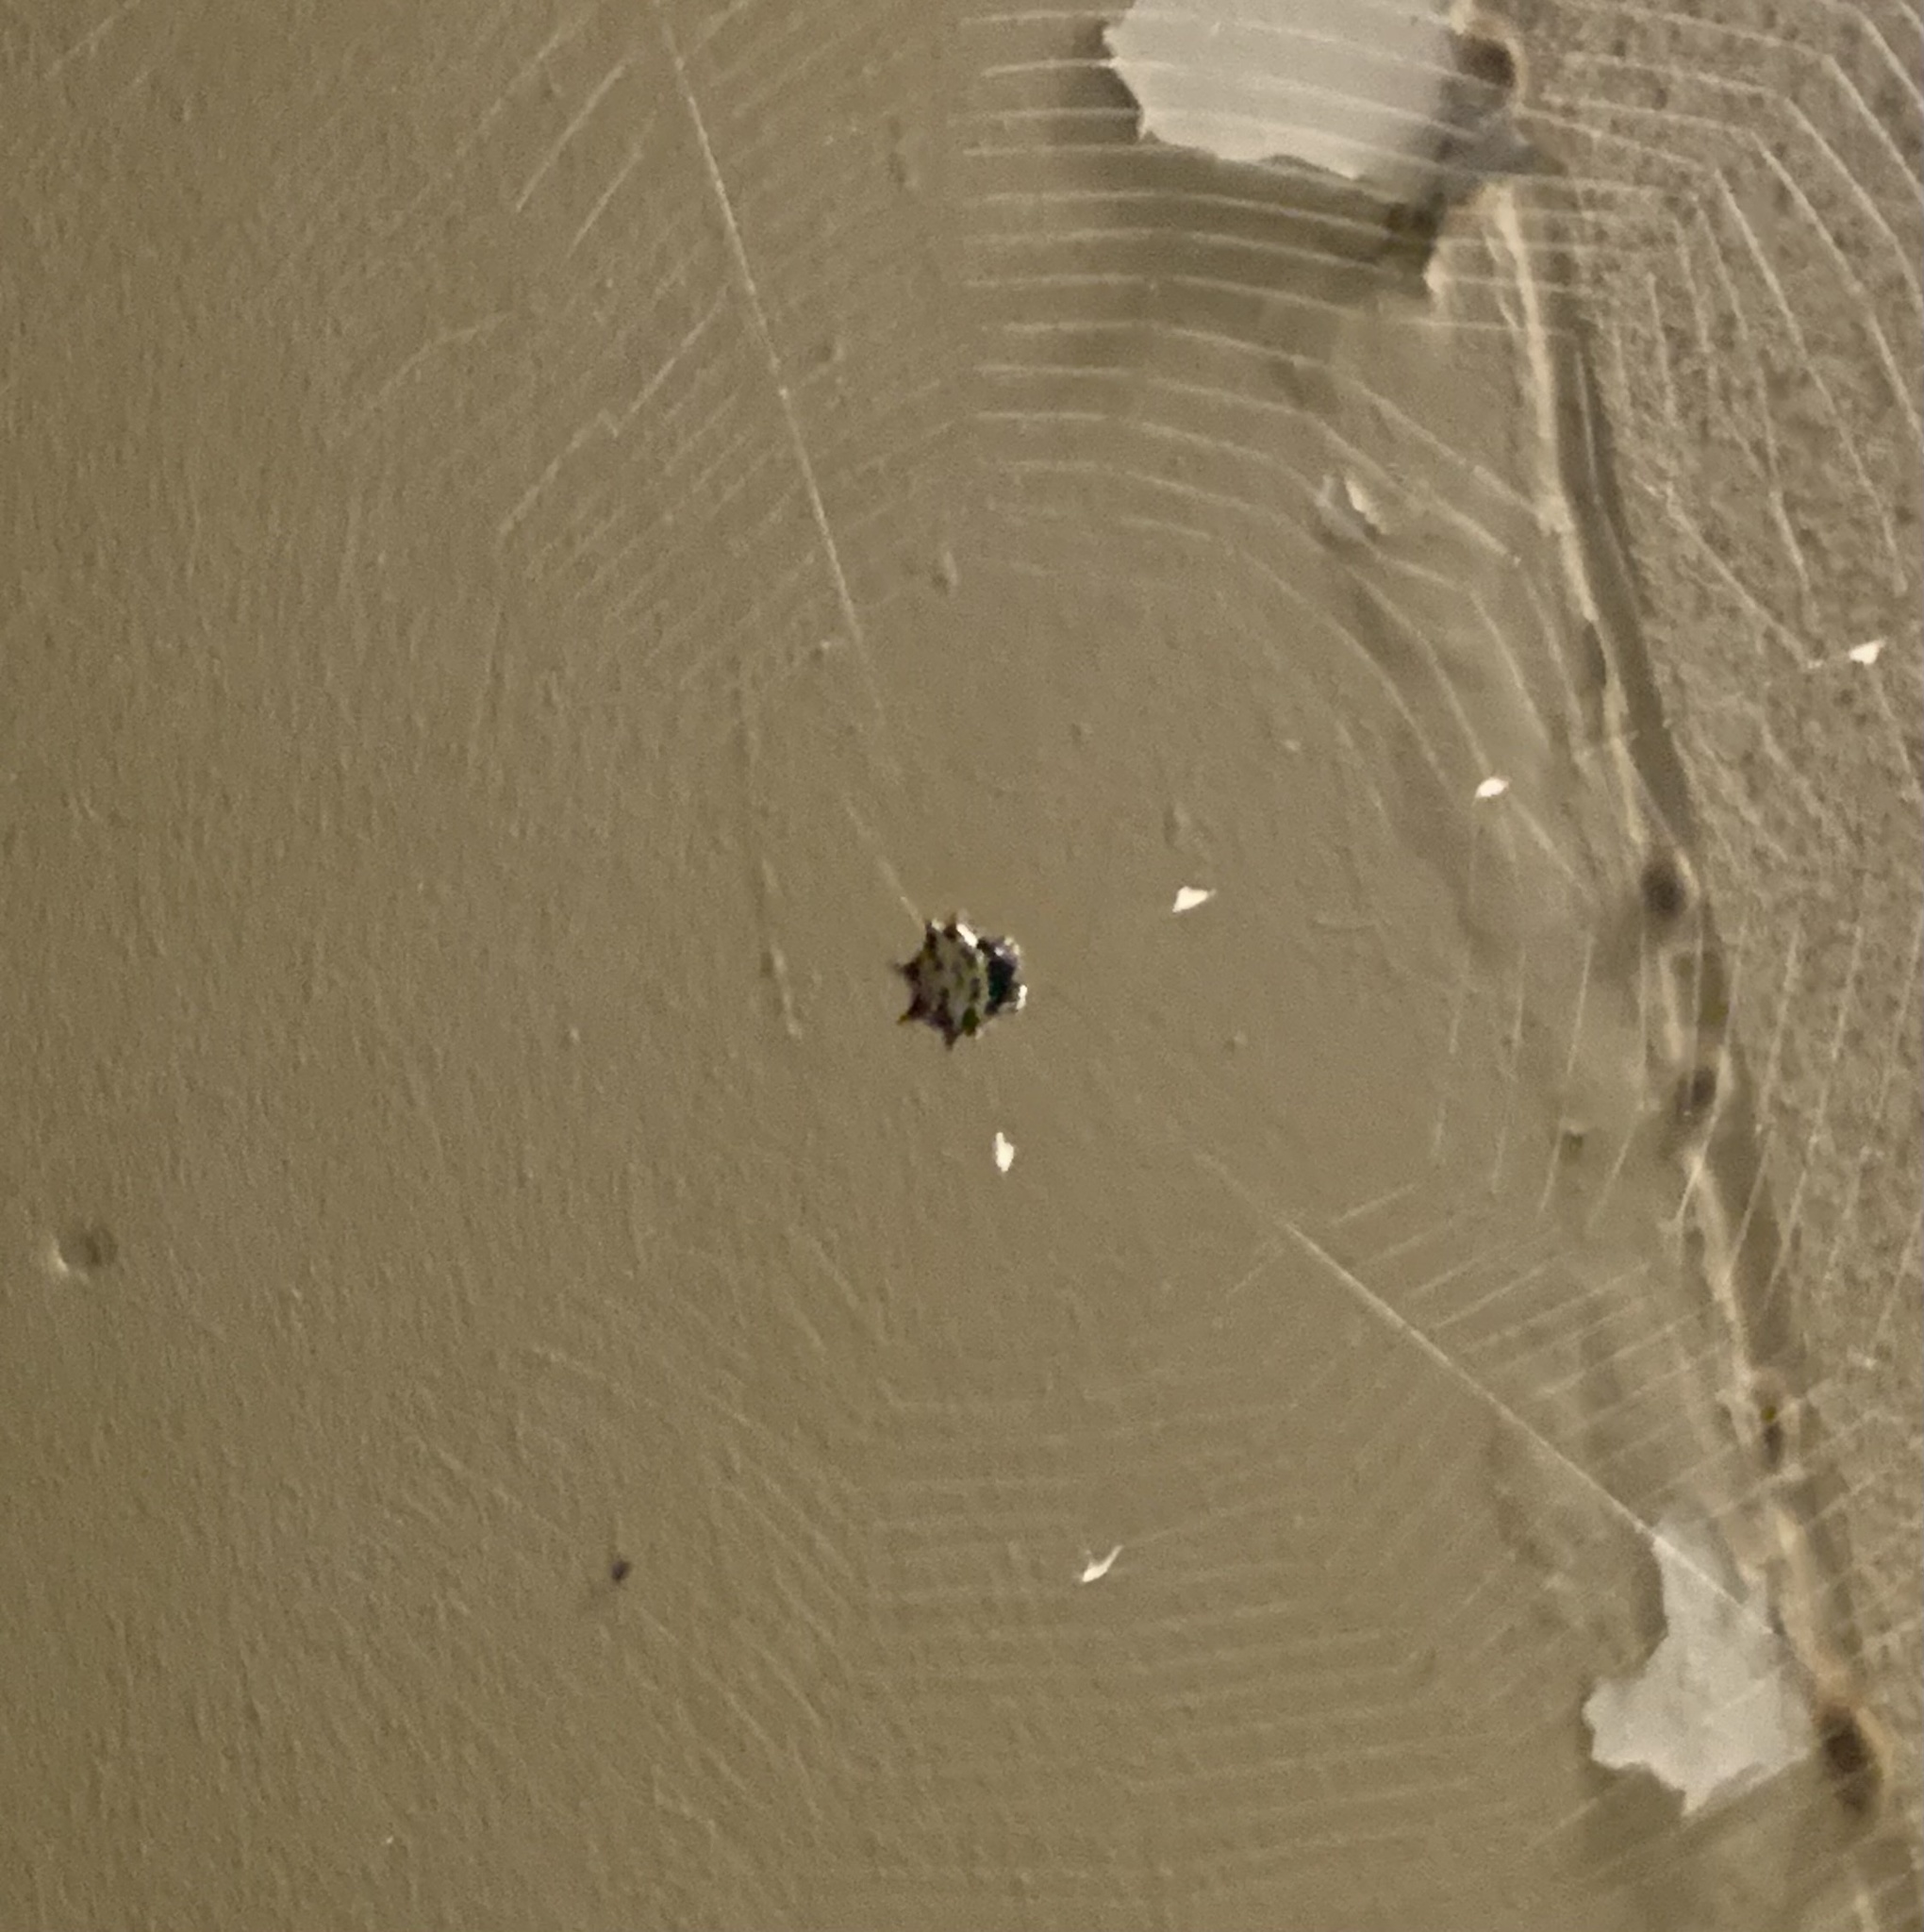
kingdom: Animalia
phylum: Arthropoda
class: Arachnida
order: Araneae
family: Araneidae
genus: Gasteracantha
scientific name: Gasteracantha cancriformis
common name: Orb weavers
